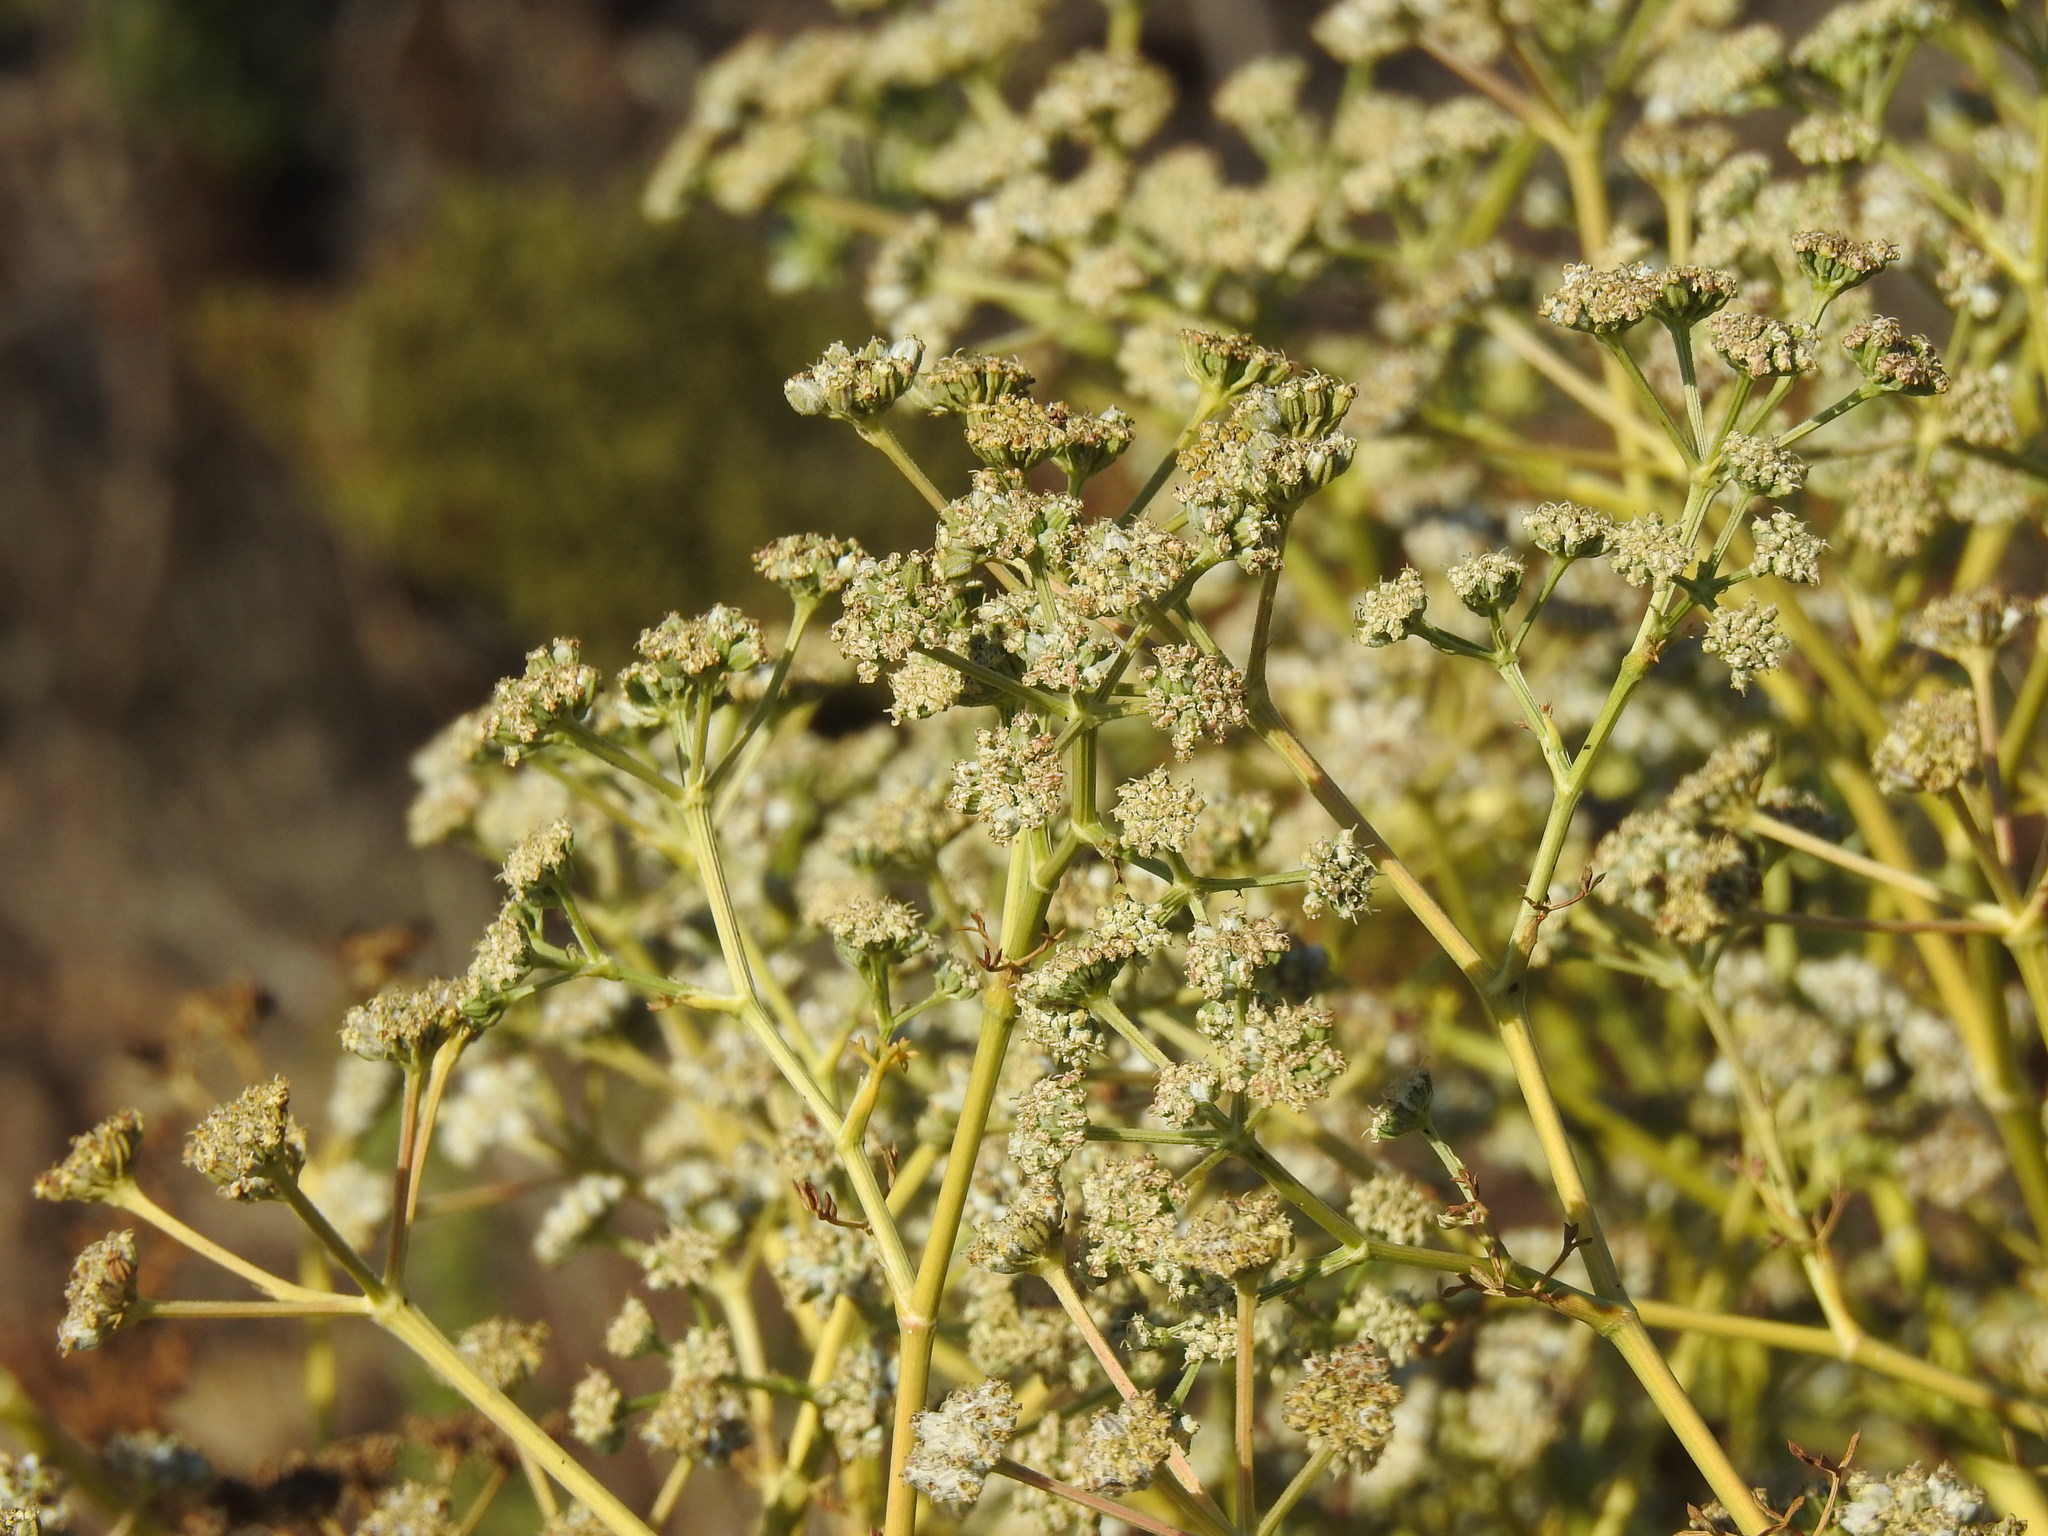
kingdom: Plantae
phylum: Tracheophyta
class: Magnoliopsida
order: Apiales
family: Apiaceae
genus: Seseli
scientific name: Seseli tortuosum
